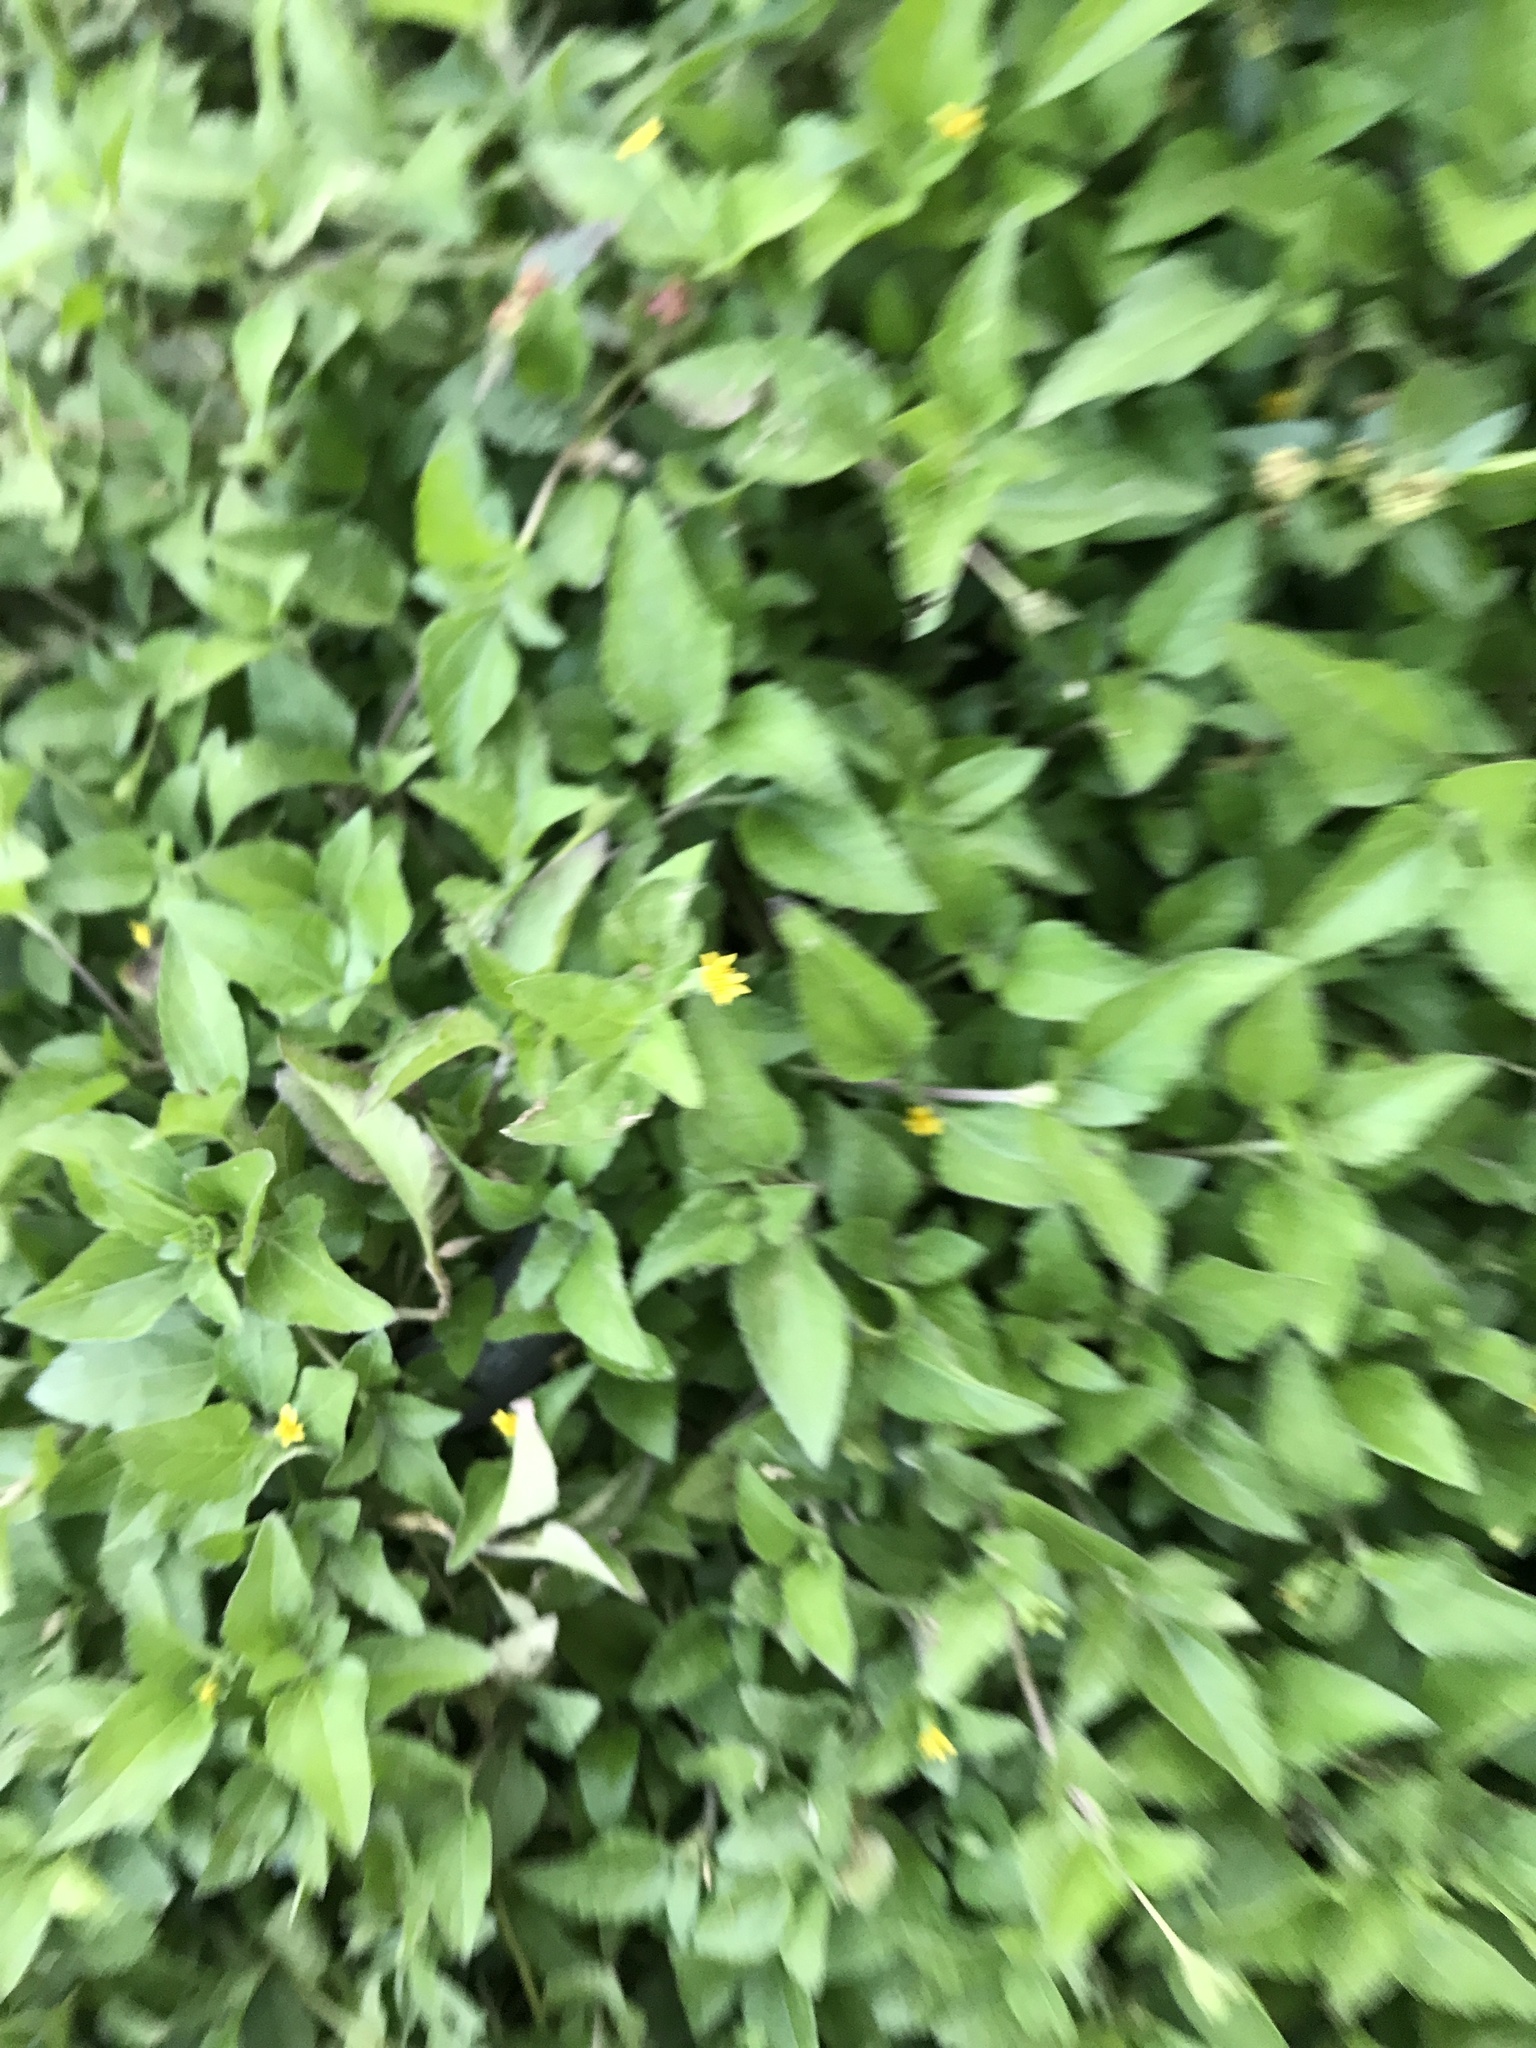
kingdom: Plantae
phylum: Tracheophyta
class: Magnoliopsida
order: Asterales
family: Asteraceae
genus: Calyptocarpus
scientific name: Calyptocarpus vialis
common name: Straggler daisy
